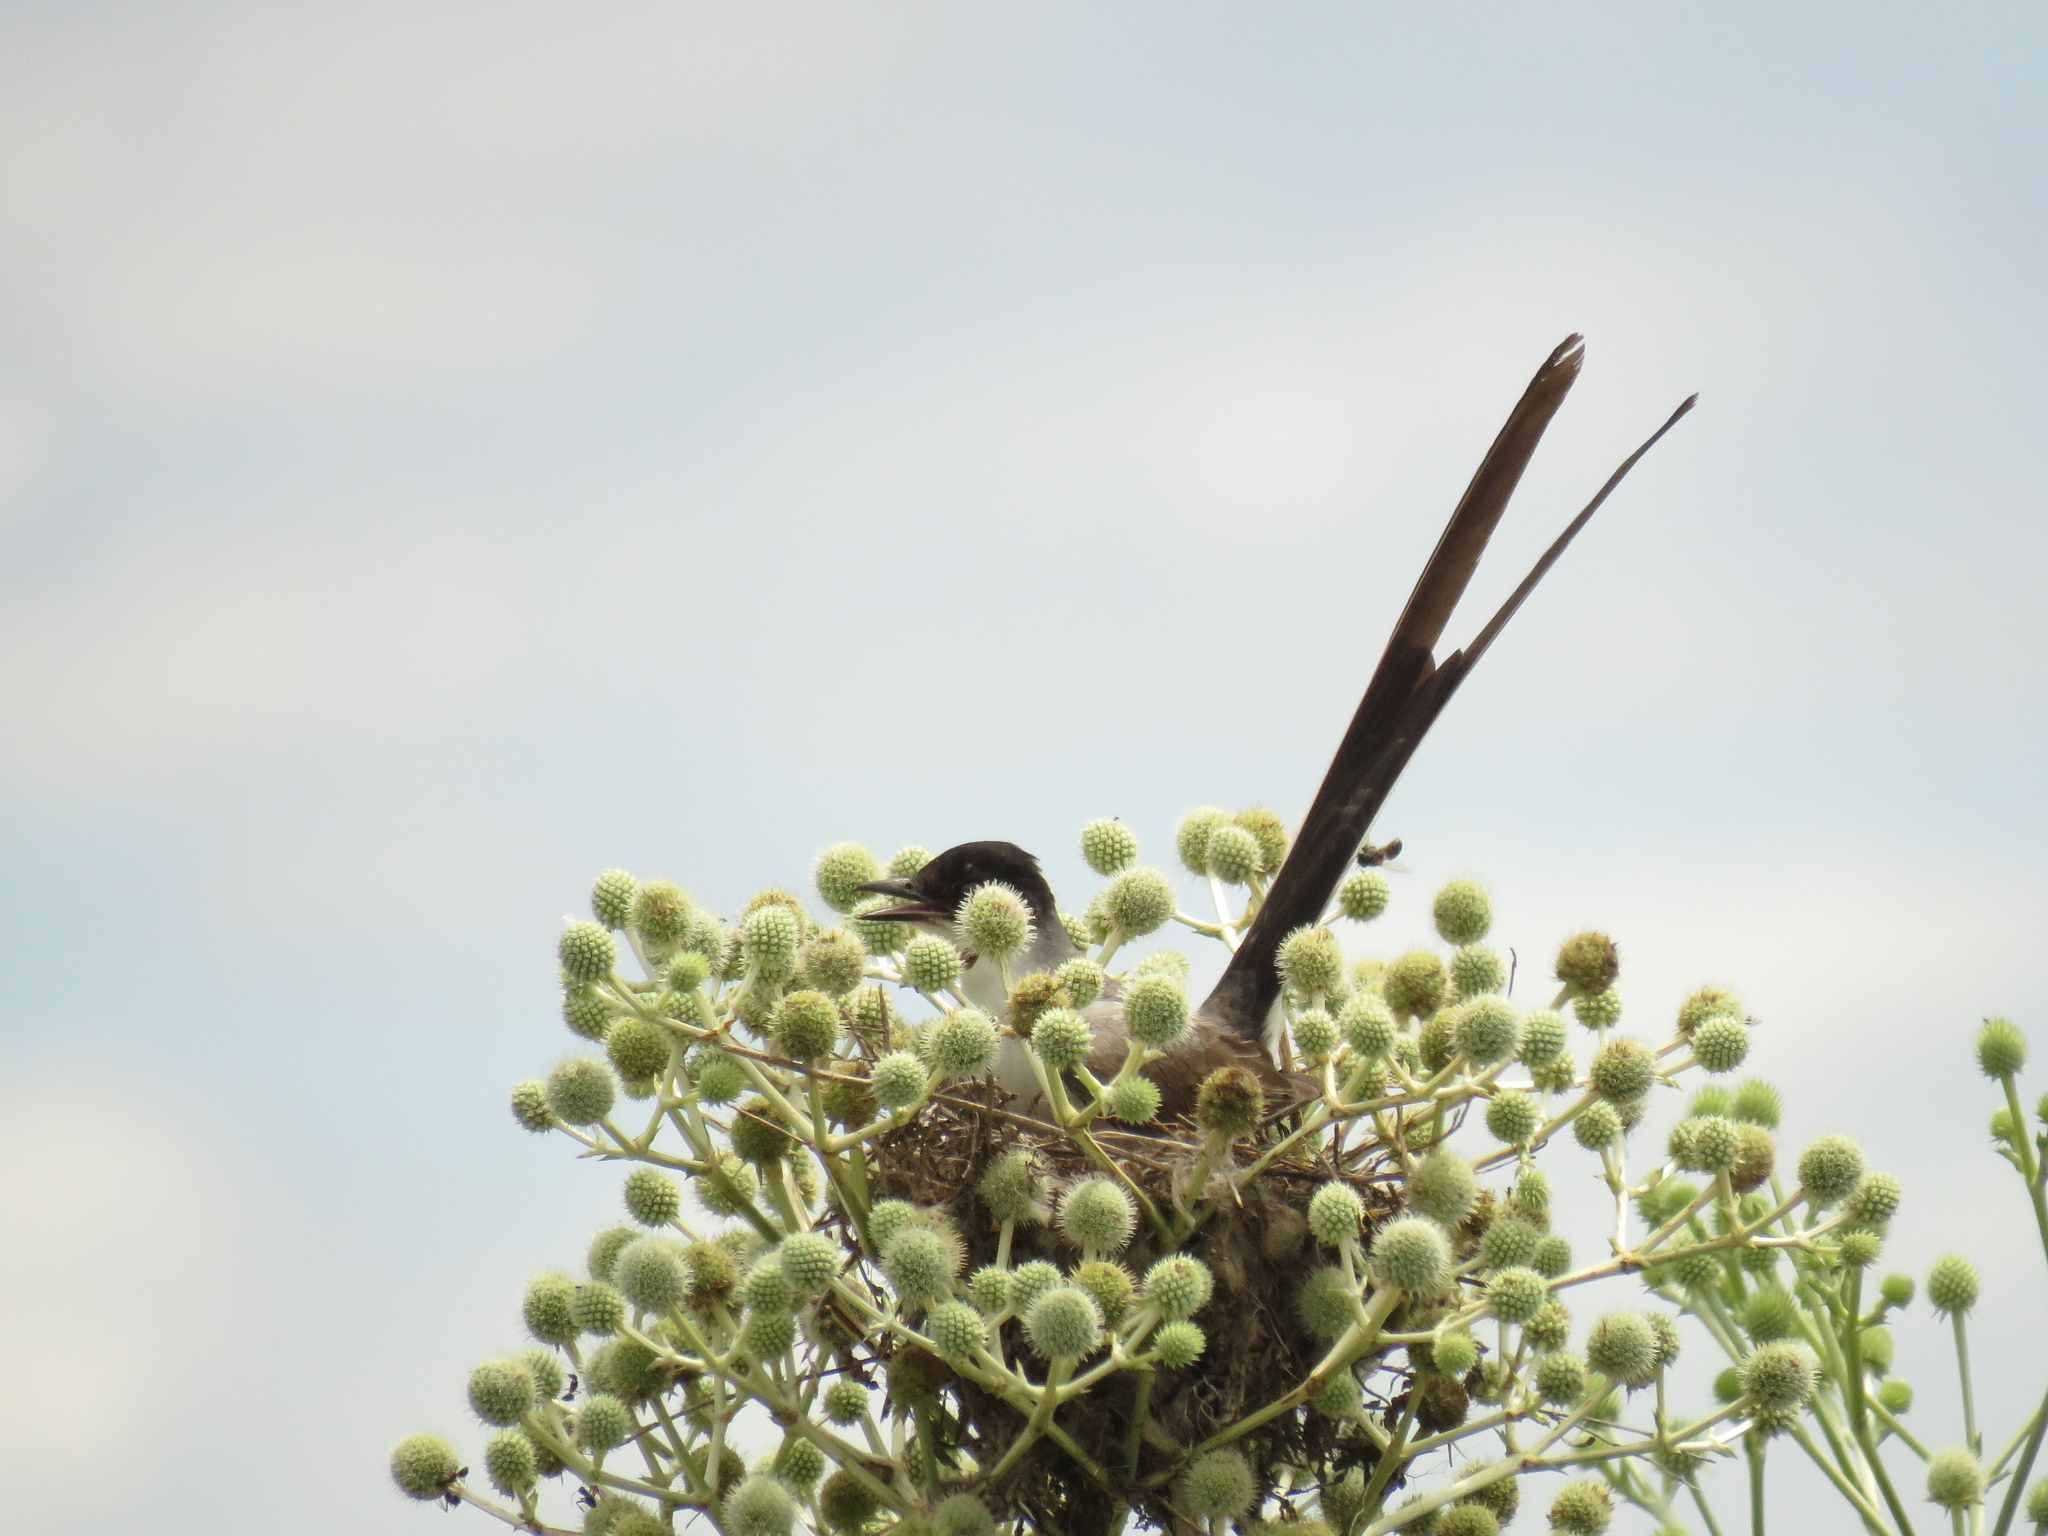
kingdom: Animalia
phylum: Chordata
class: Aves
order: Passeriformes
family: Tyrannidae
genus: Tyrannus
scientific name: Tyrannus savana
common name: Fork-tailed flycatcher
